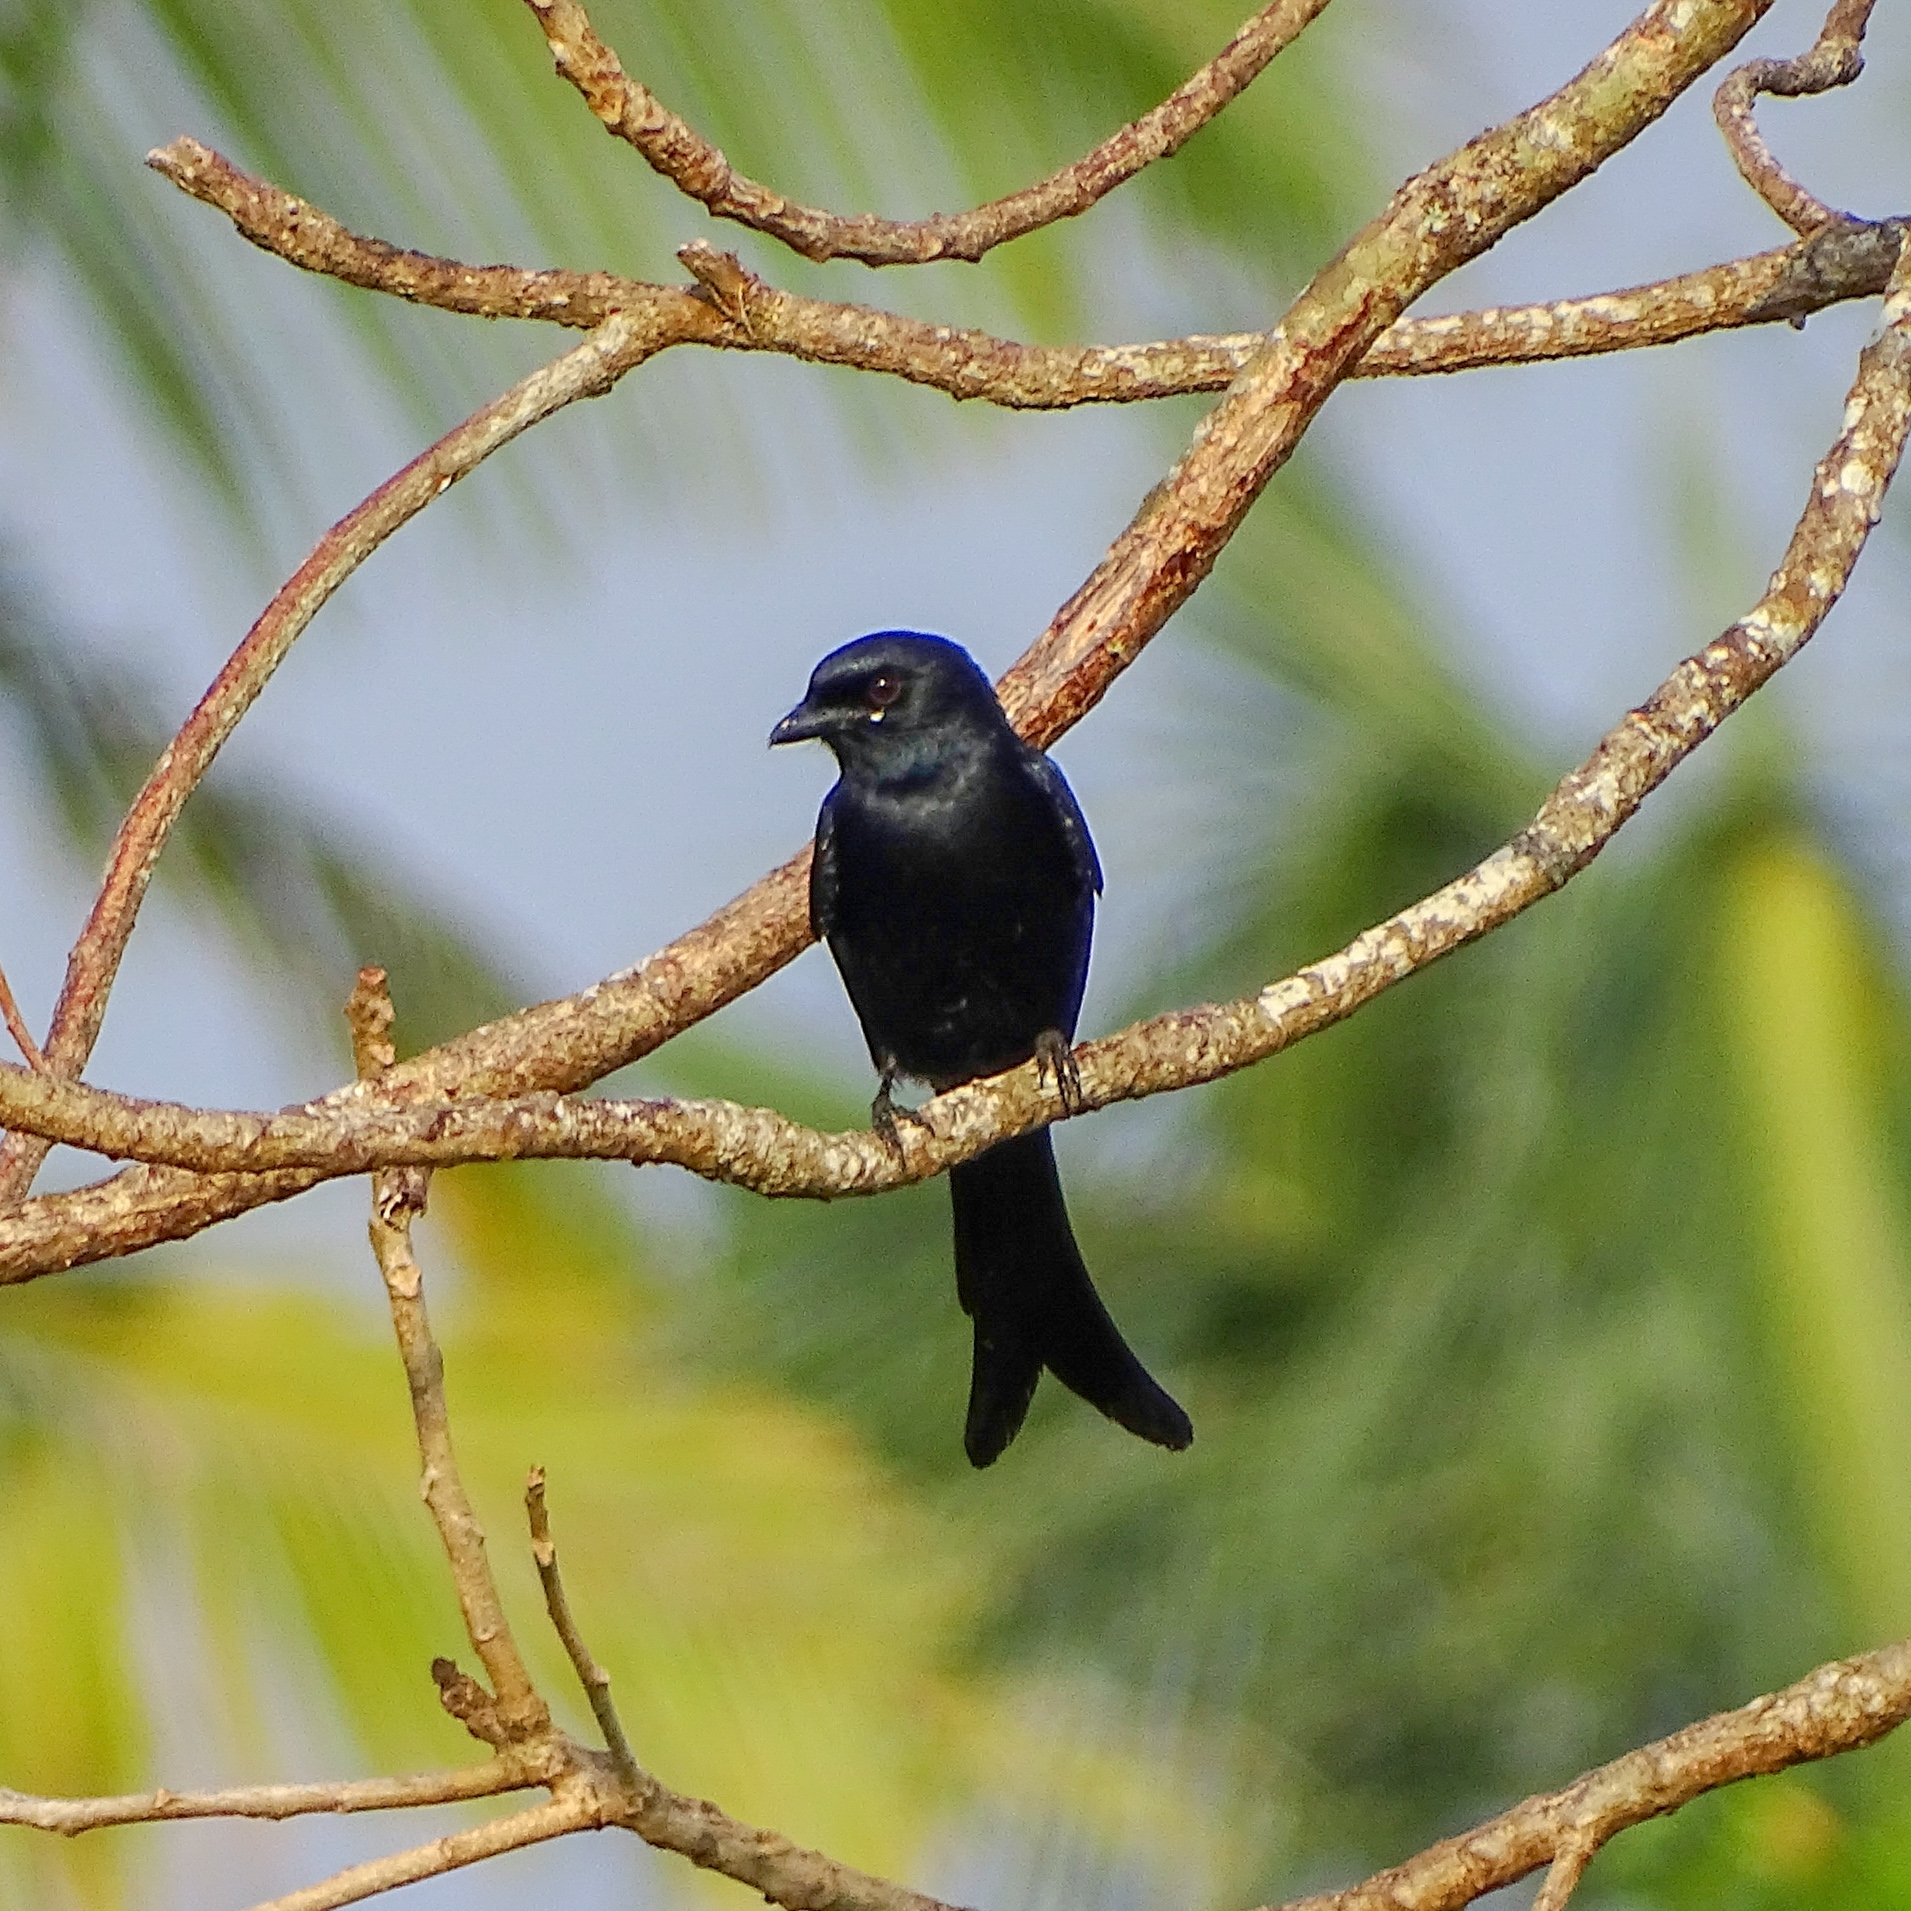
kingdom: Animalia
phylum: Chordata
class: Aves
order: Passeriformes
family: Dicruridae
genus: Dicrurus
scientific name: Dicrurus macrocercus
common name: Black drongo
